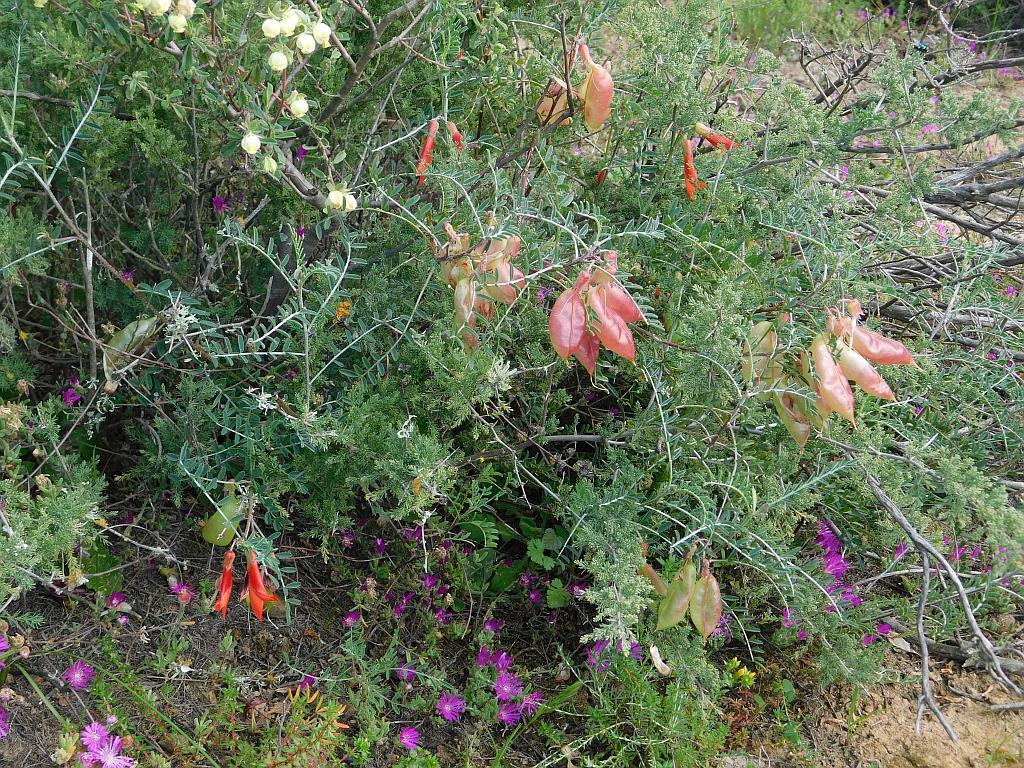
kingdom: Plantae
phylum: Tracheophyta
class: Magnoliopsida
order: Fabales
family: Fabaceae
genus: Lessertia
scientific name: Lessertia frutescens
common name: Balloon-pea
